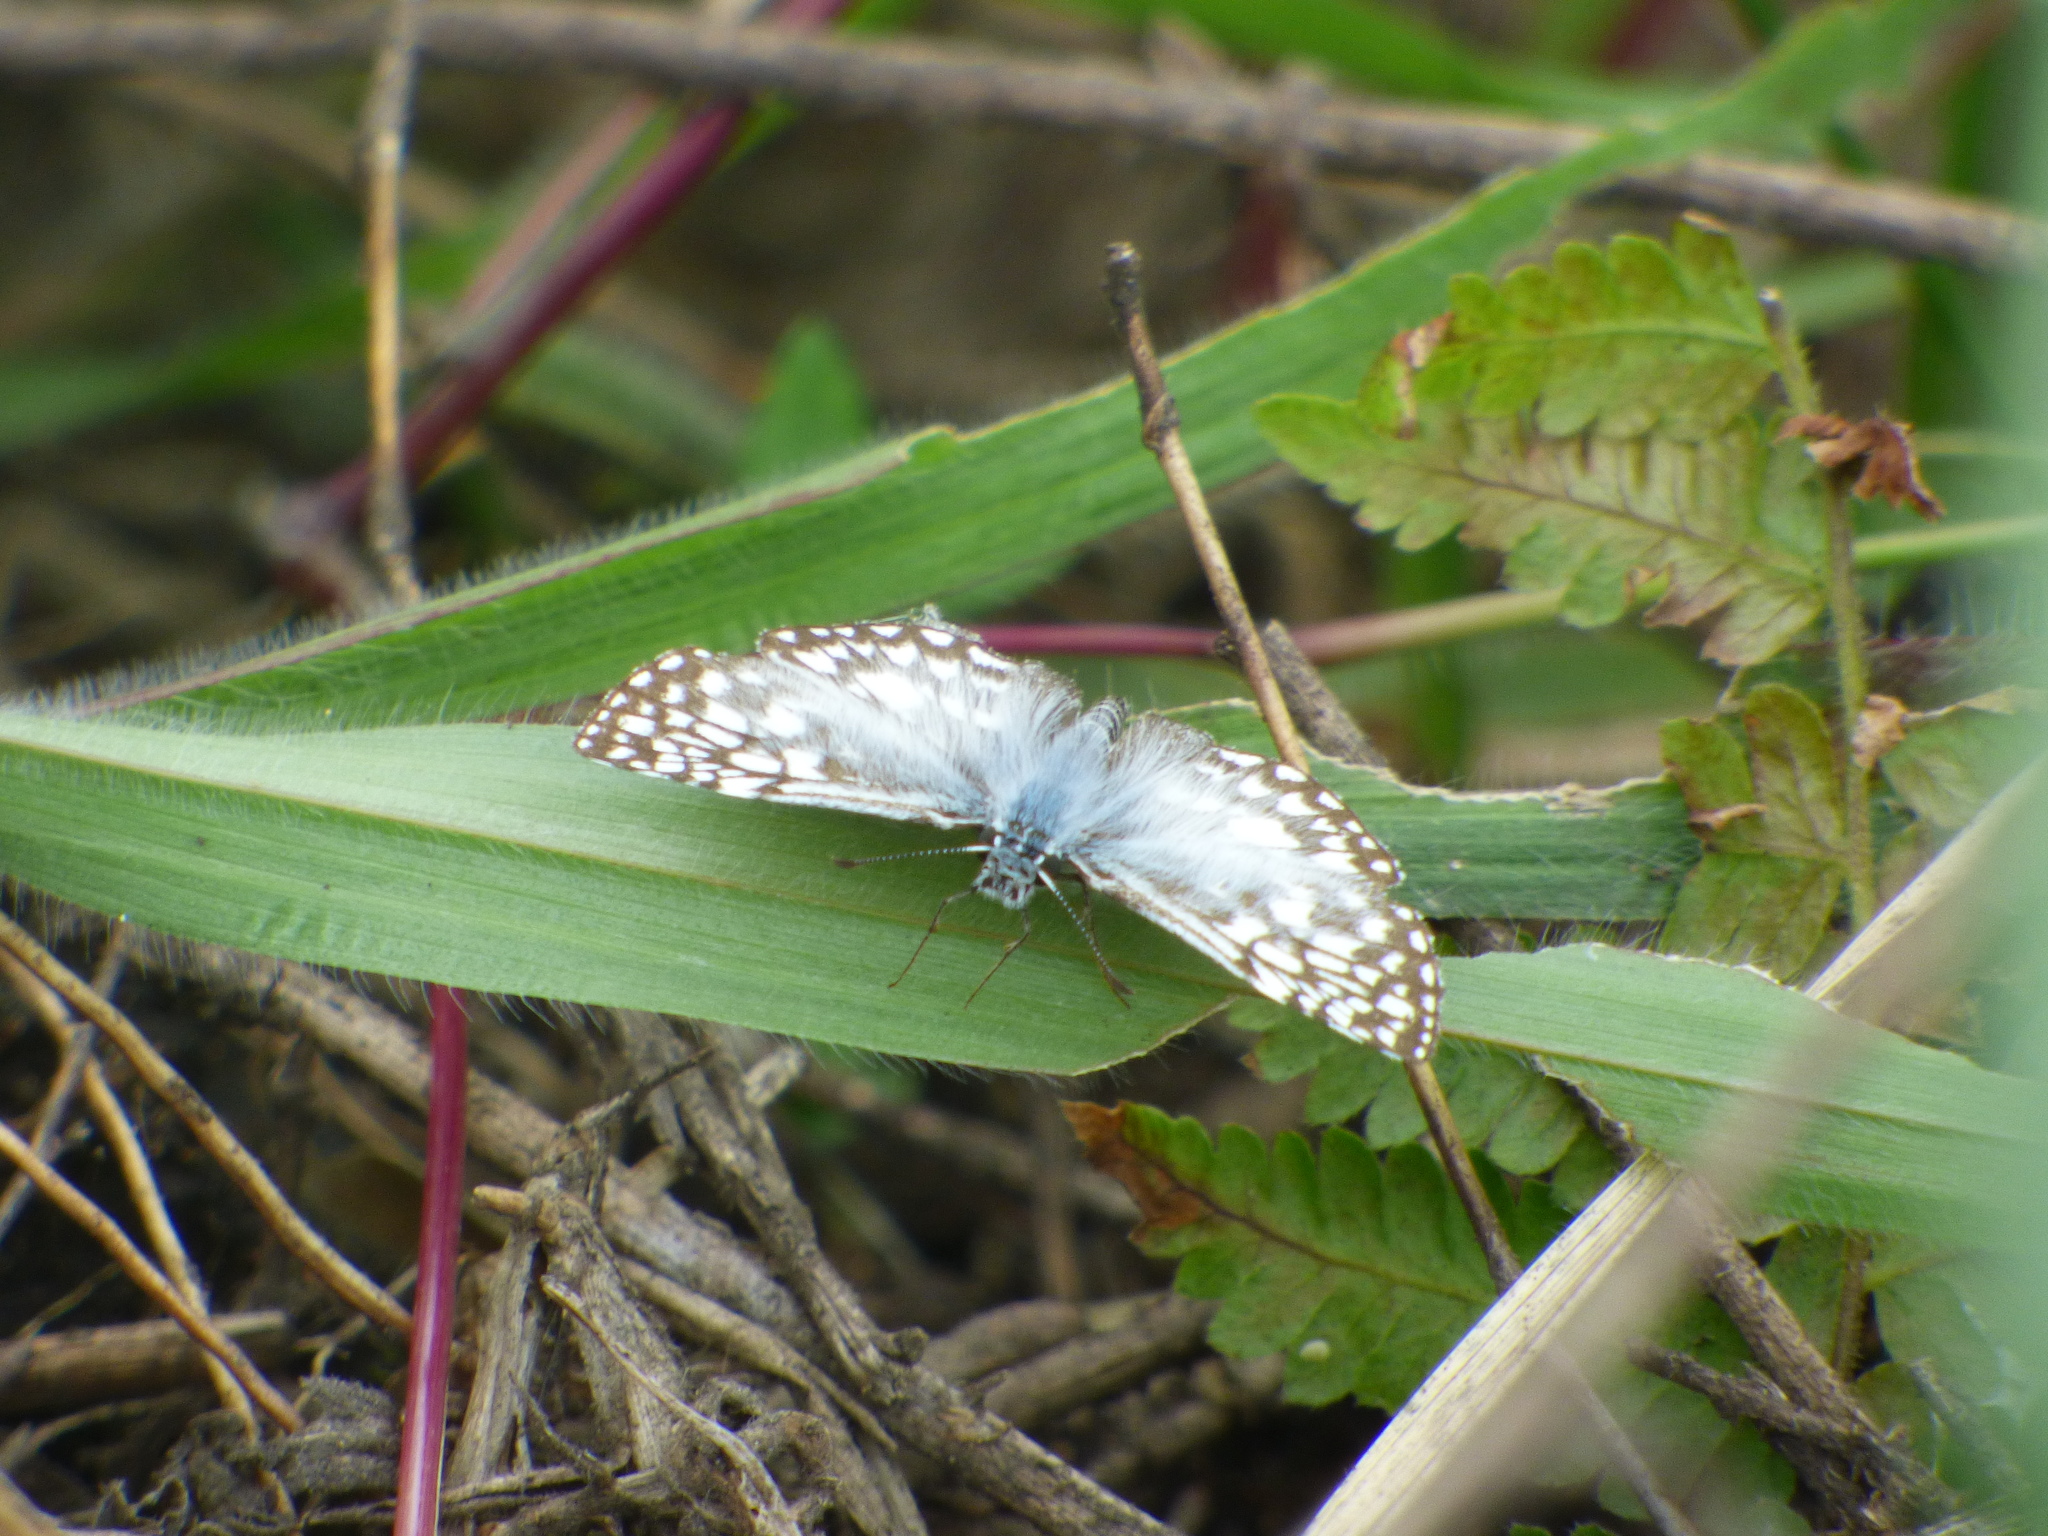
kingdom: Animalia
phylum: Arthropoda
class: Insecta
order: Lepidoptera
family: Hesperiidae
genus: Pyrgus
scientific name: Pyrgus oileus
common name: Tropical checkered-skipper
